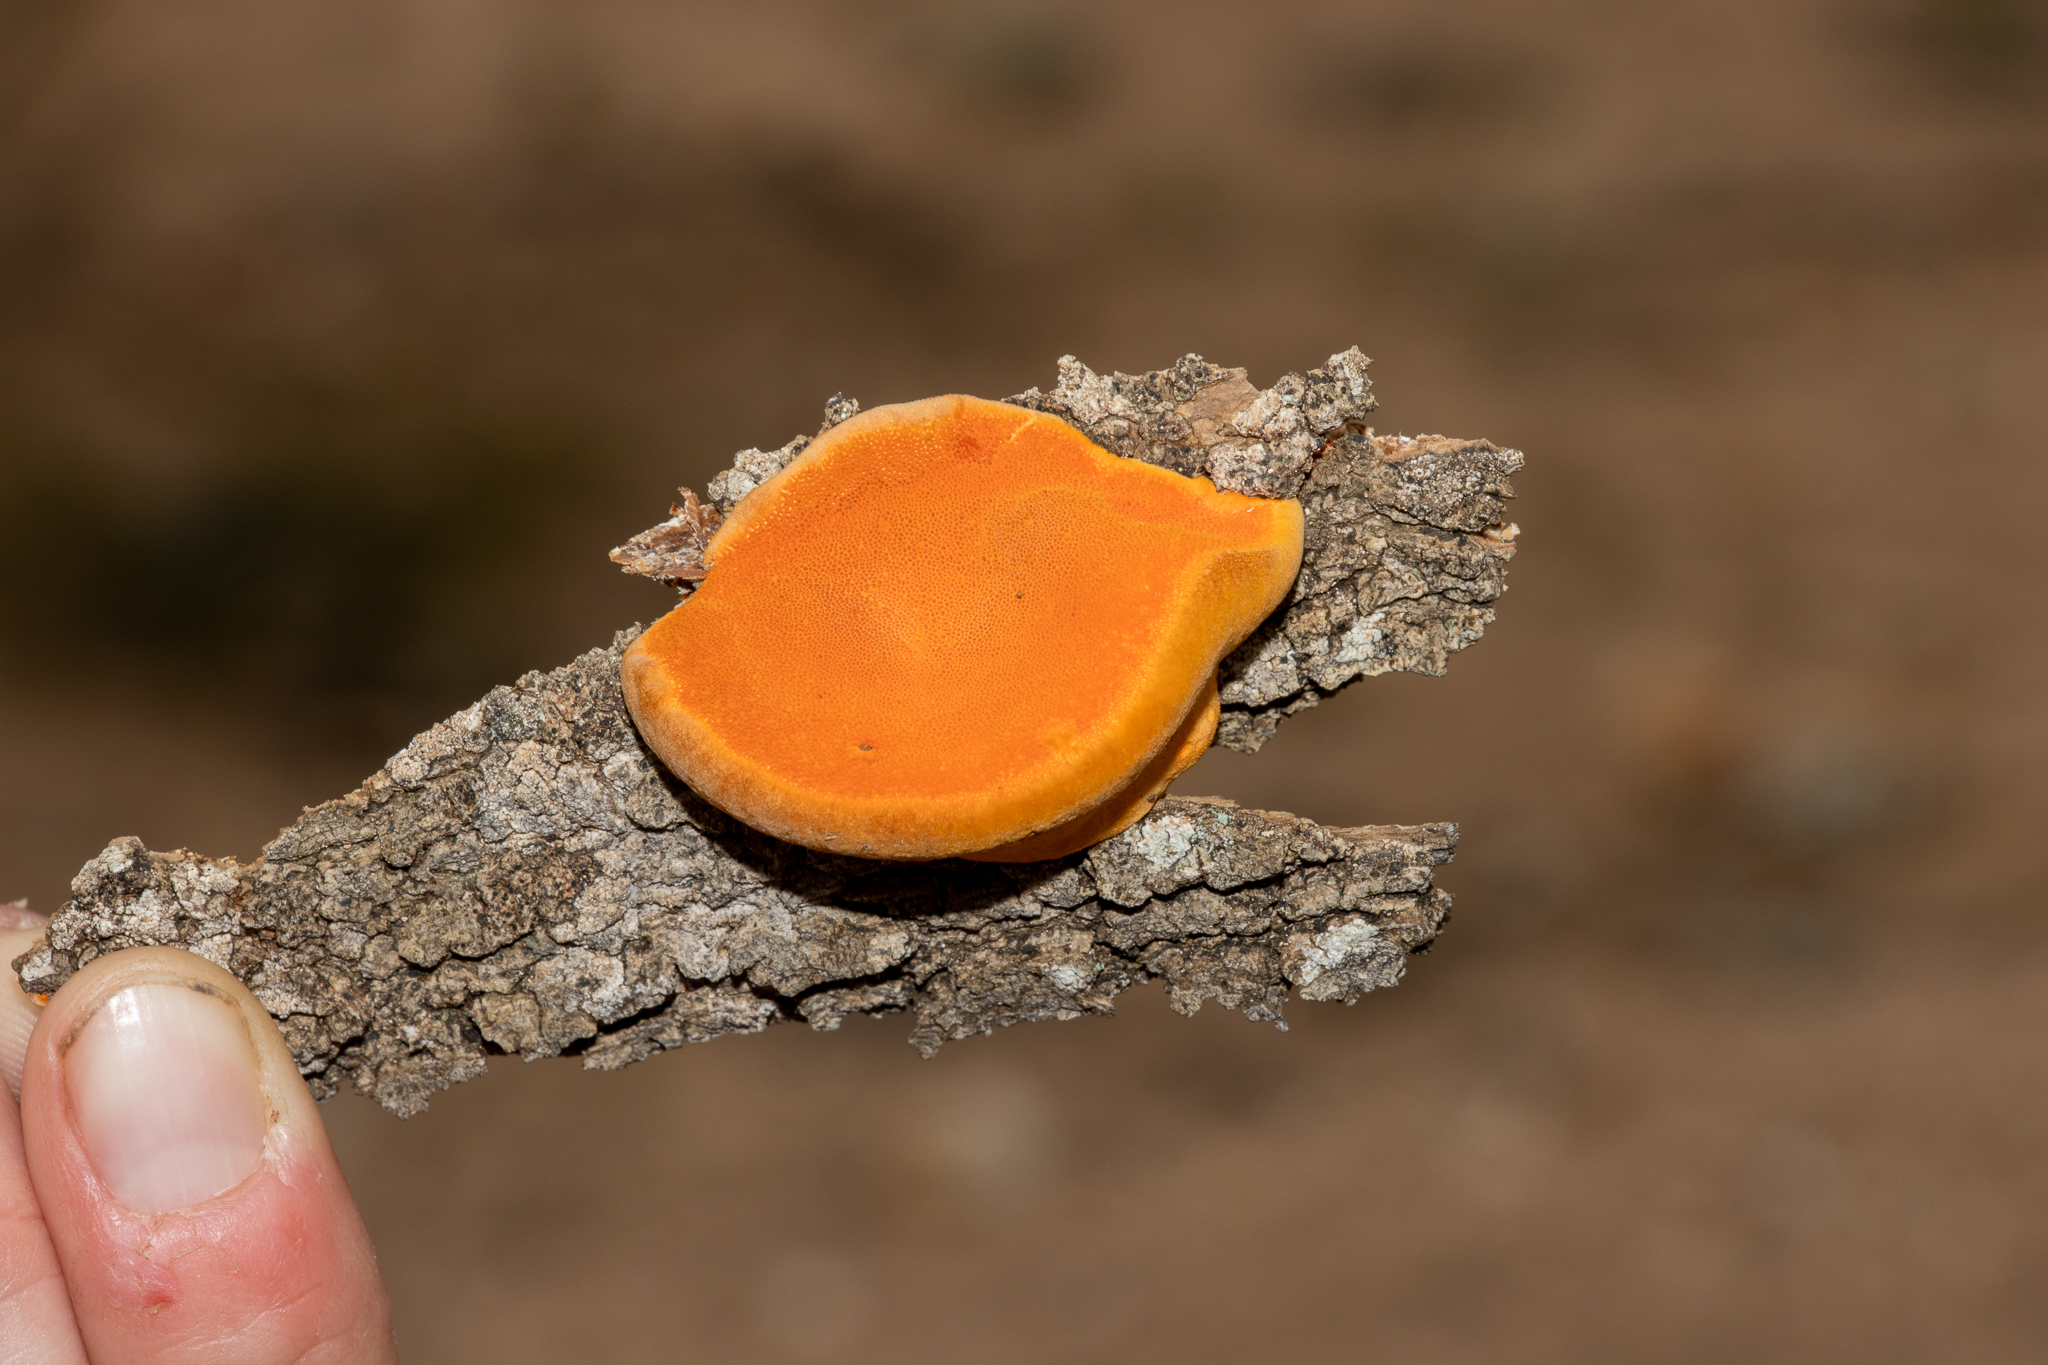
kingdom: Fungi
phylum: Basidiomycota
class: Agaricomycetes
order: Polyporales
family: Polyporaceae
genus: Trametes
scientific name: Trametes coccinea
